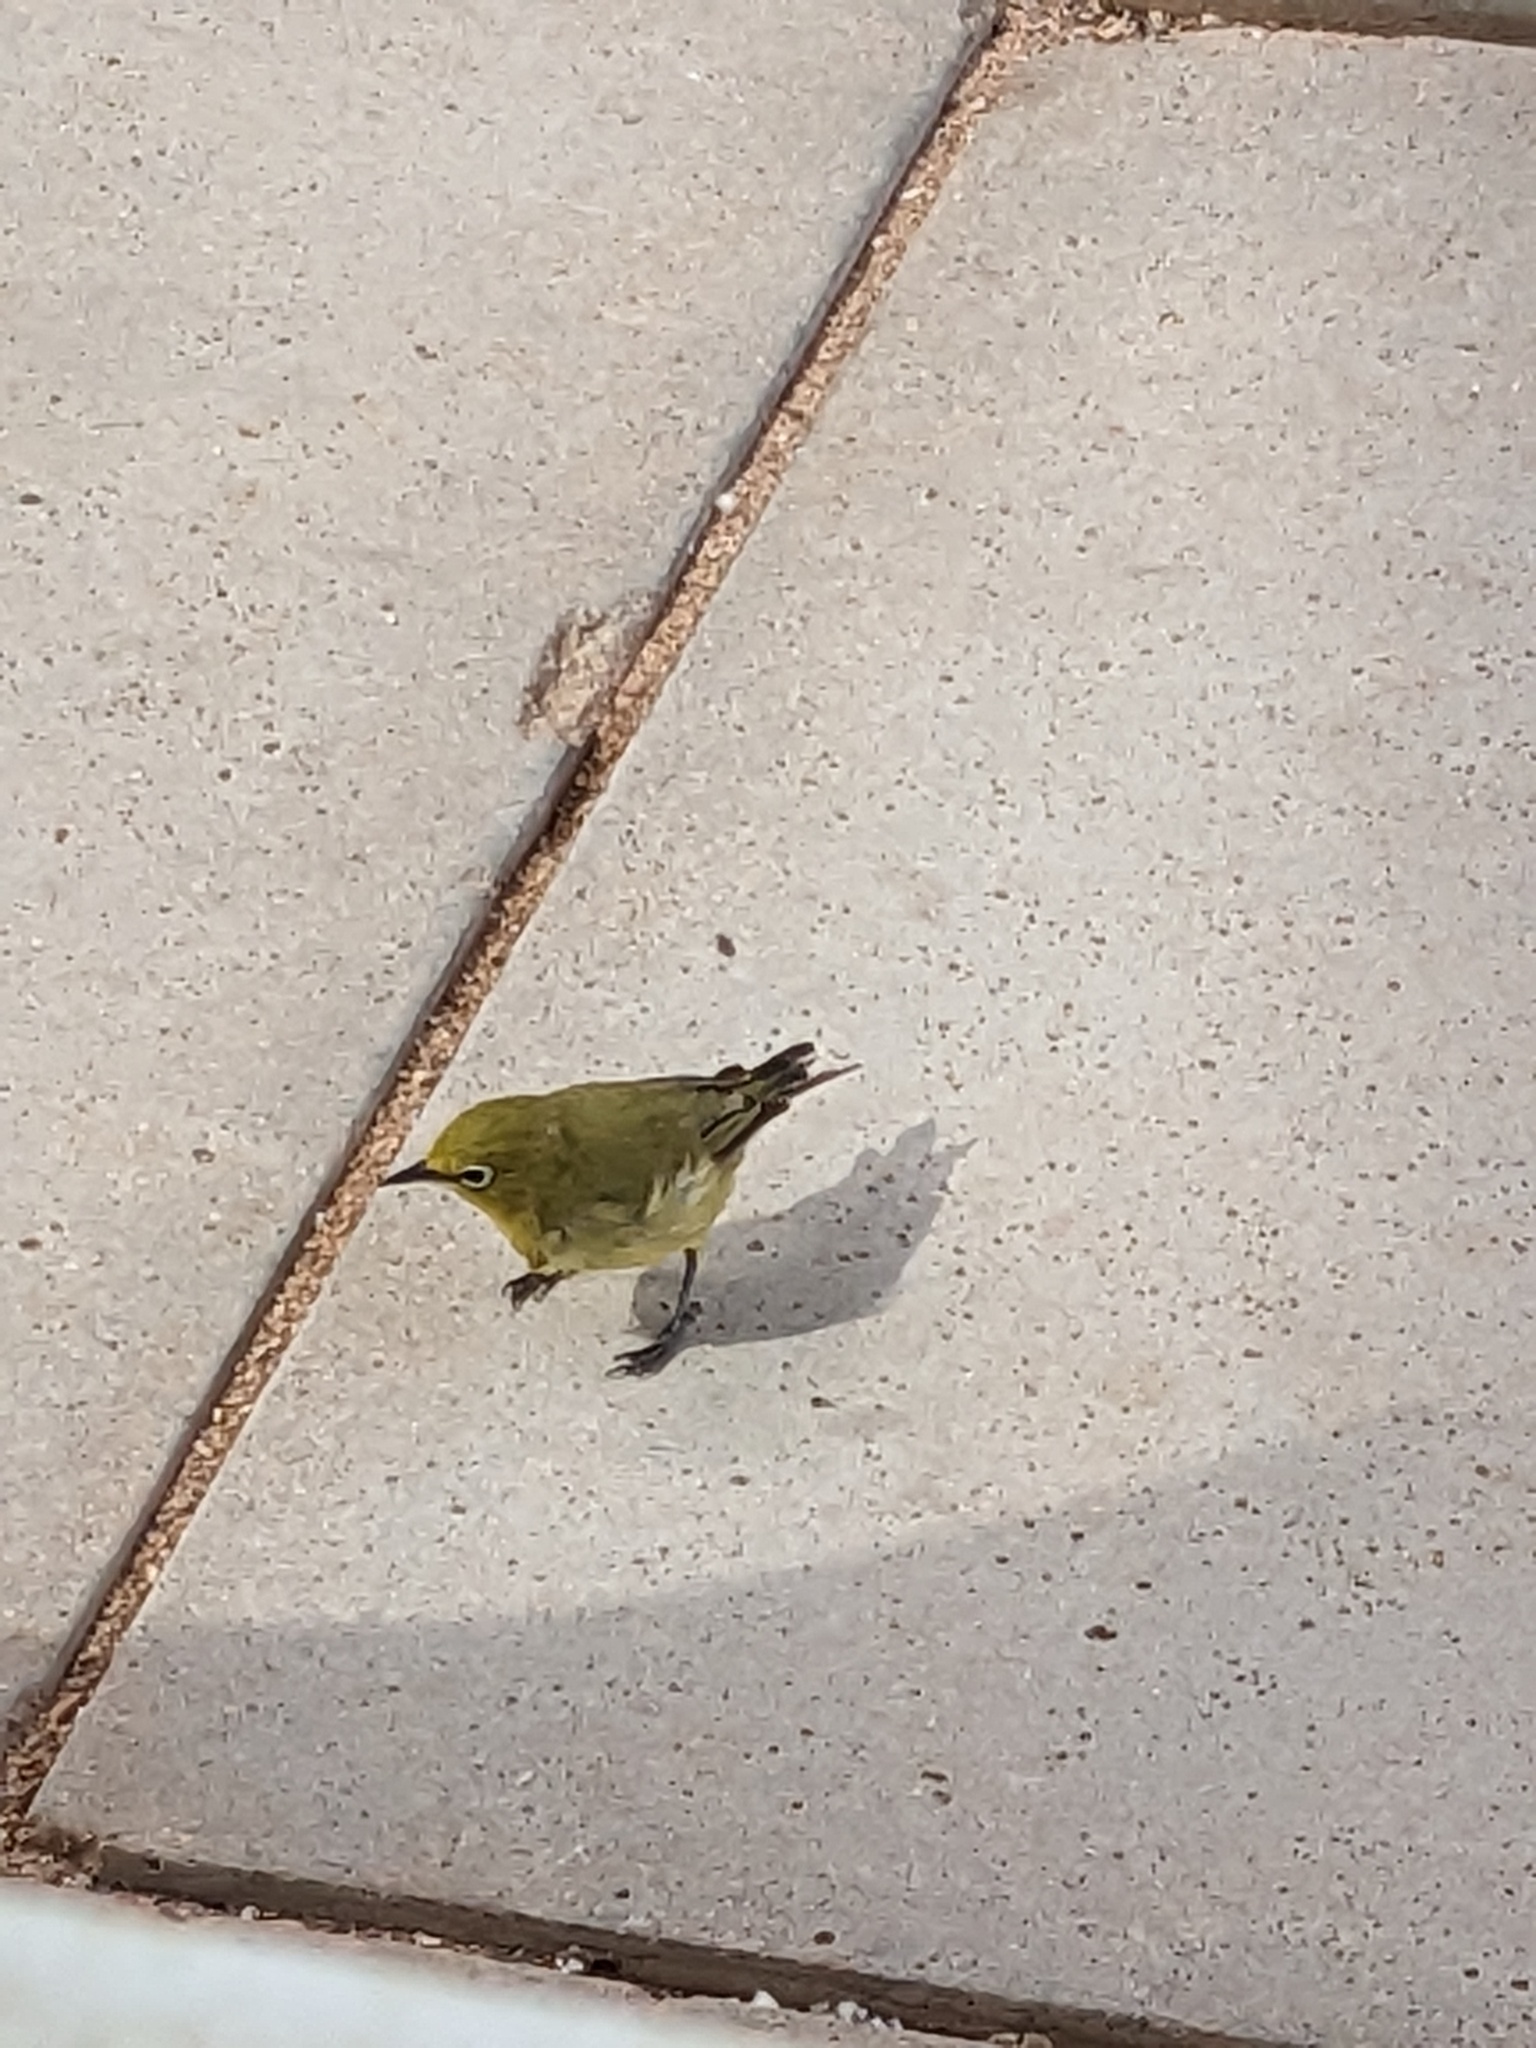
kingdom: Animalia
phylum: Chordata
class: Aves
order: Passeriformes
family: Zosteropidae
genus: Zosterops
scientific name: Zosterops lateralis
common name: Silvereye
